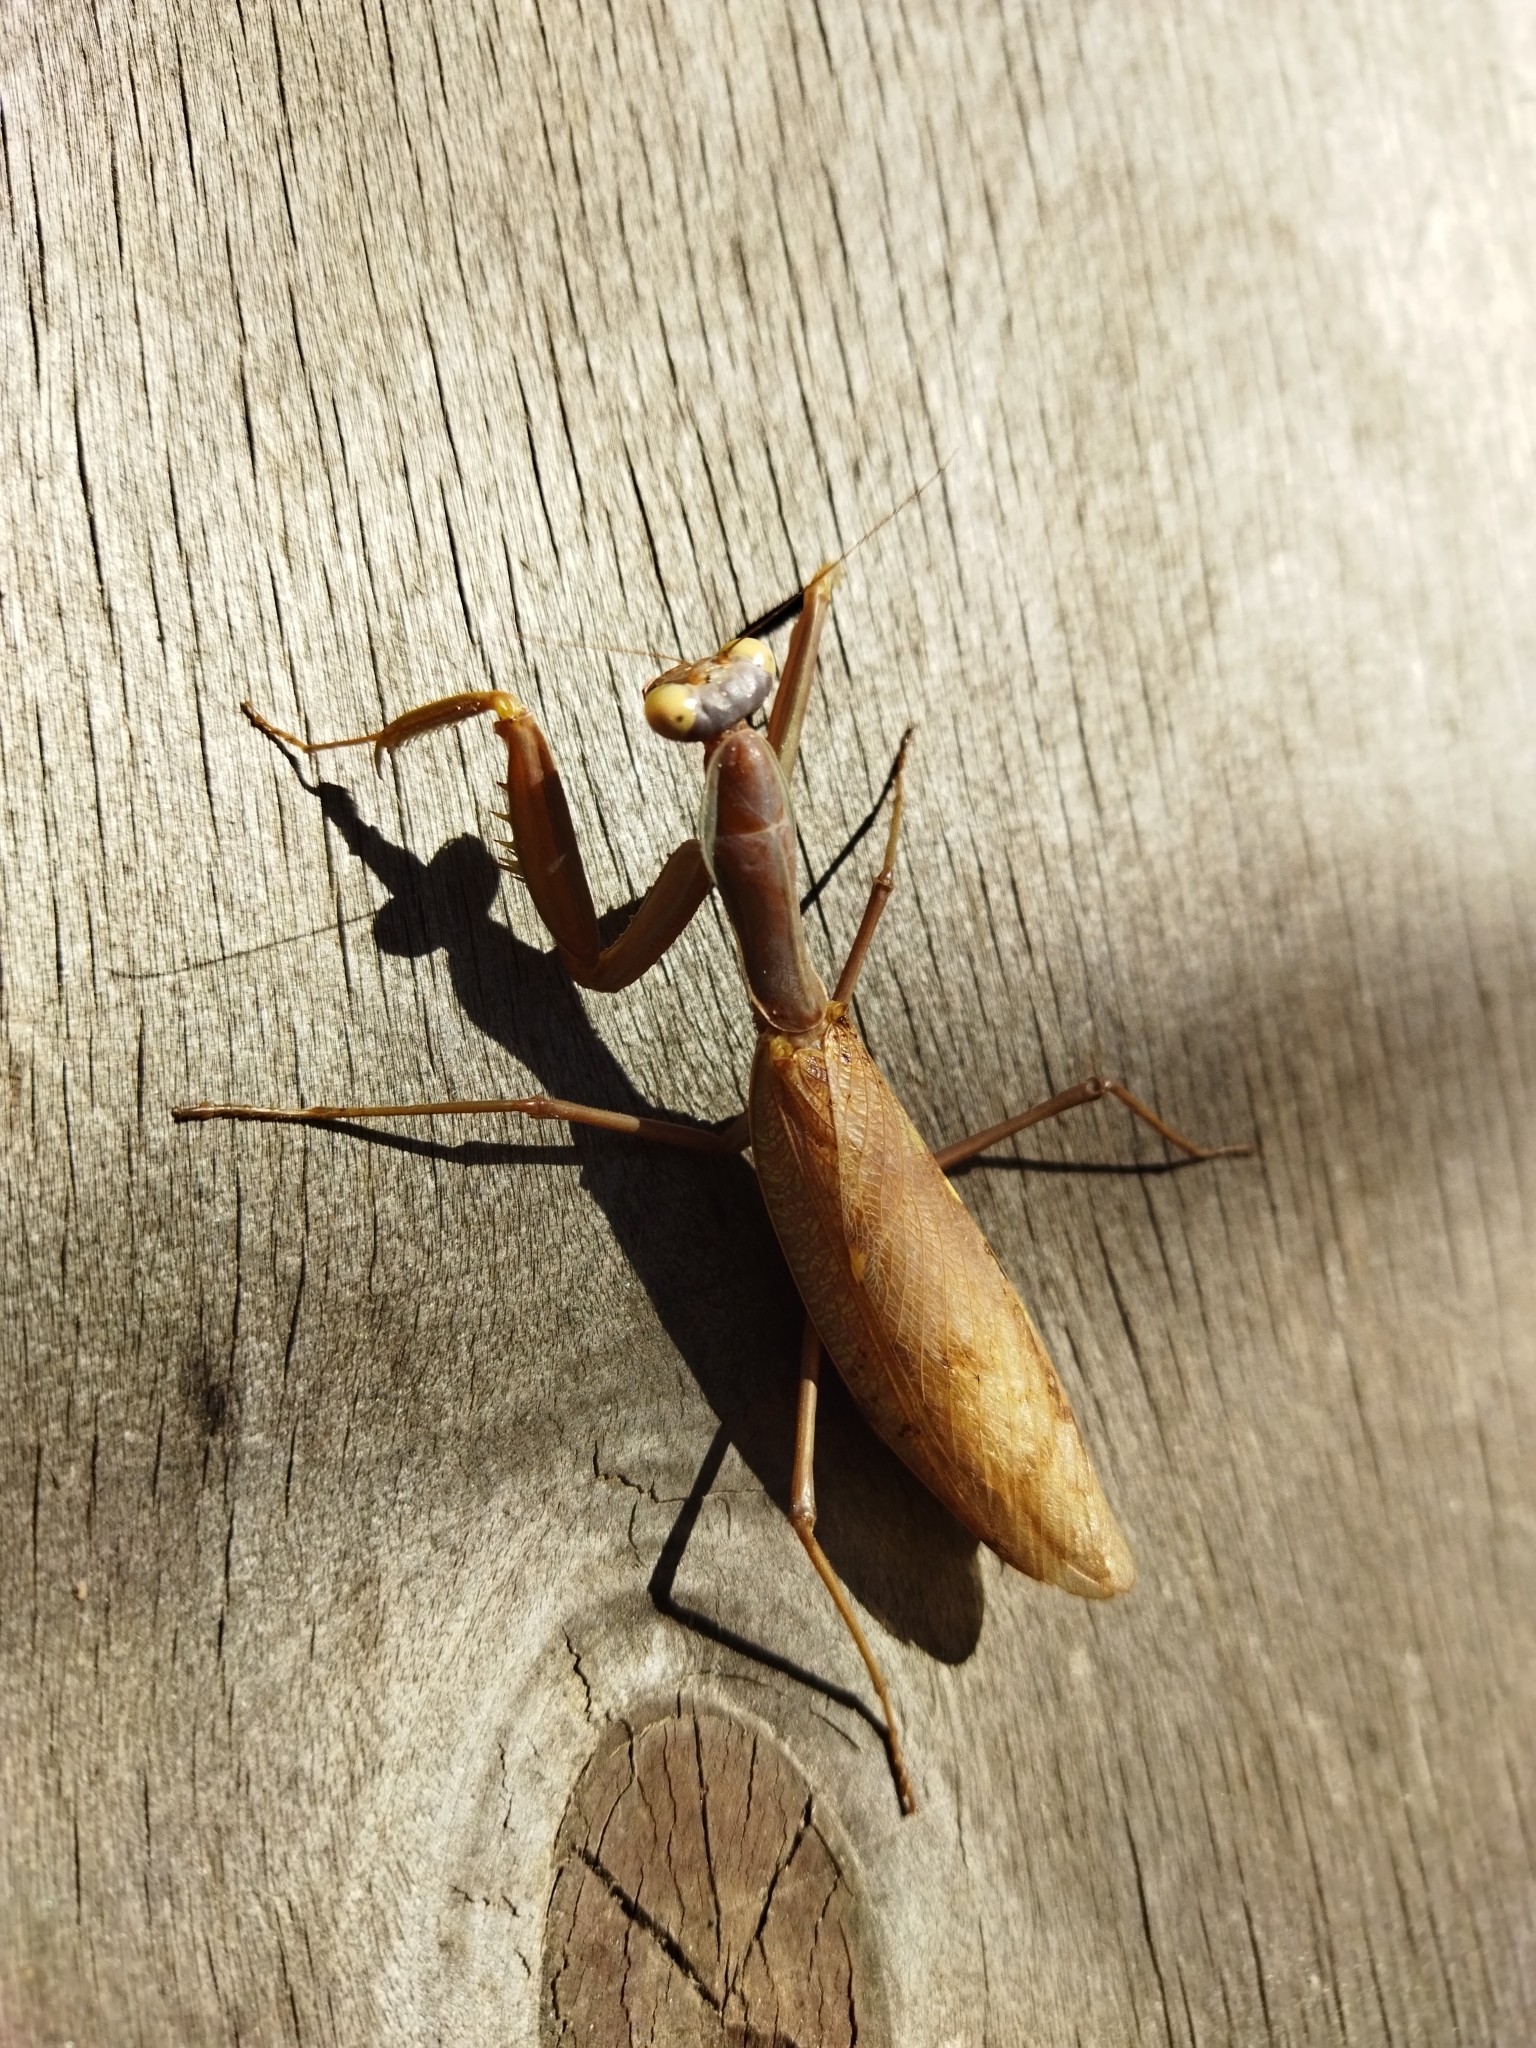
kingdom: Animalia
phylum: Arthropoda
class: Insecta
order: Mantodea
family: Mantidae
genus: Hierodula
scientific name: Hierodula transcaucasica
